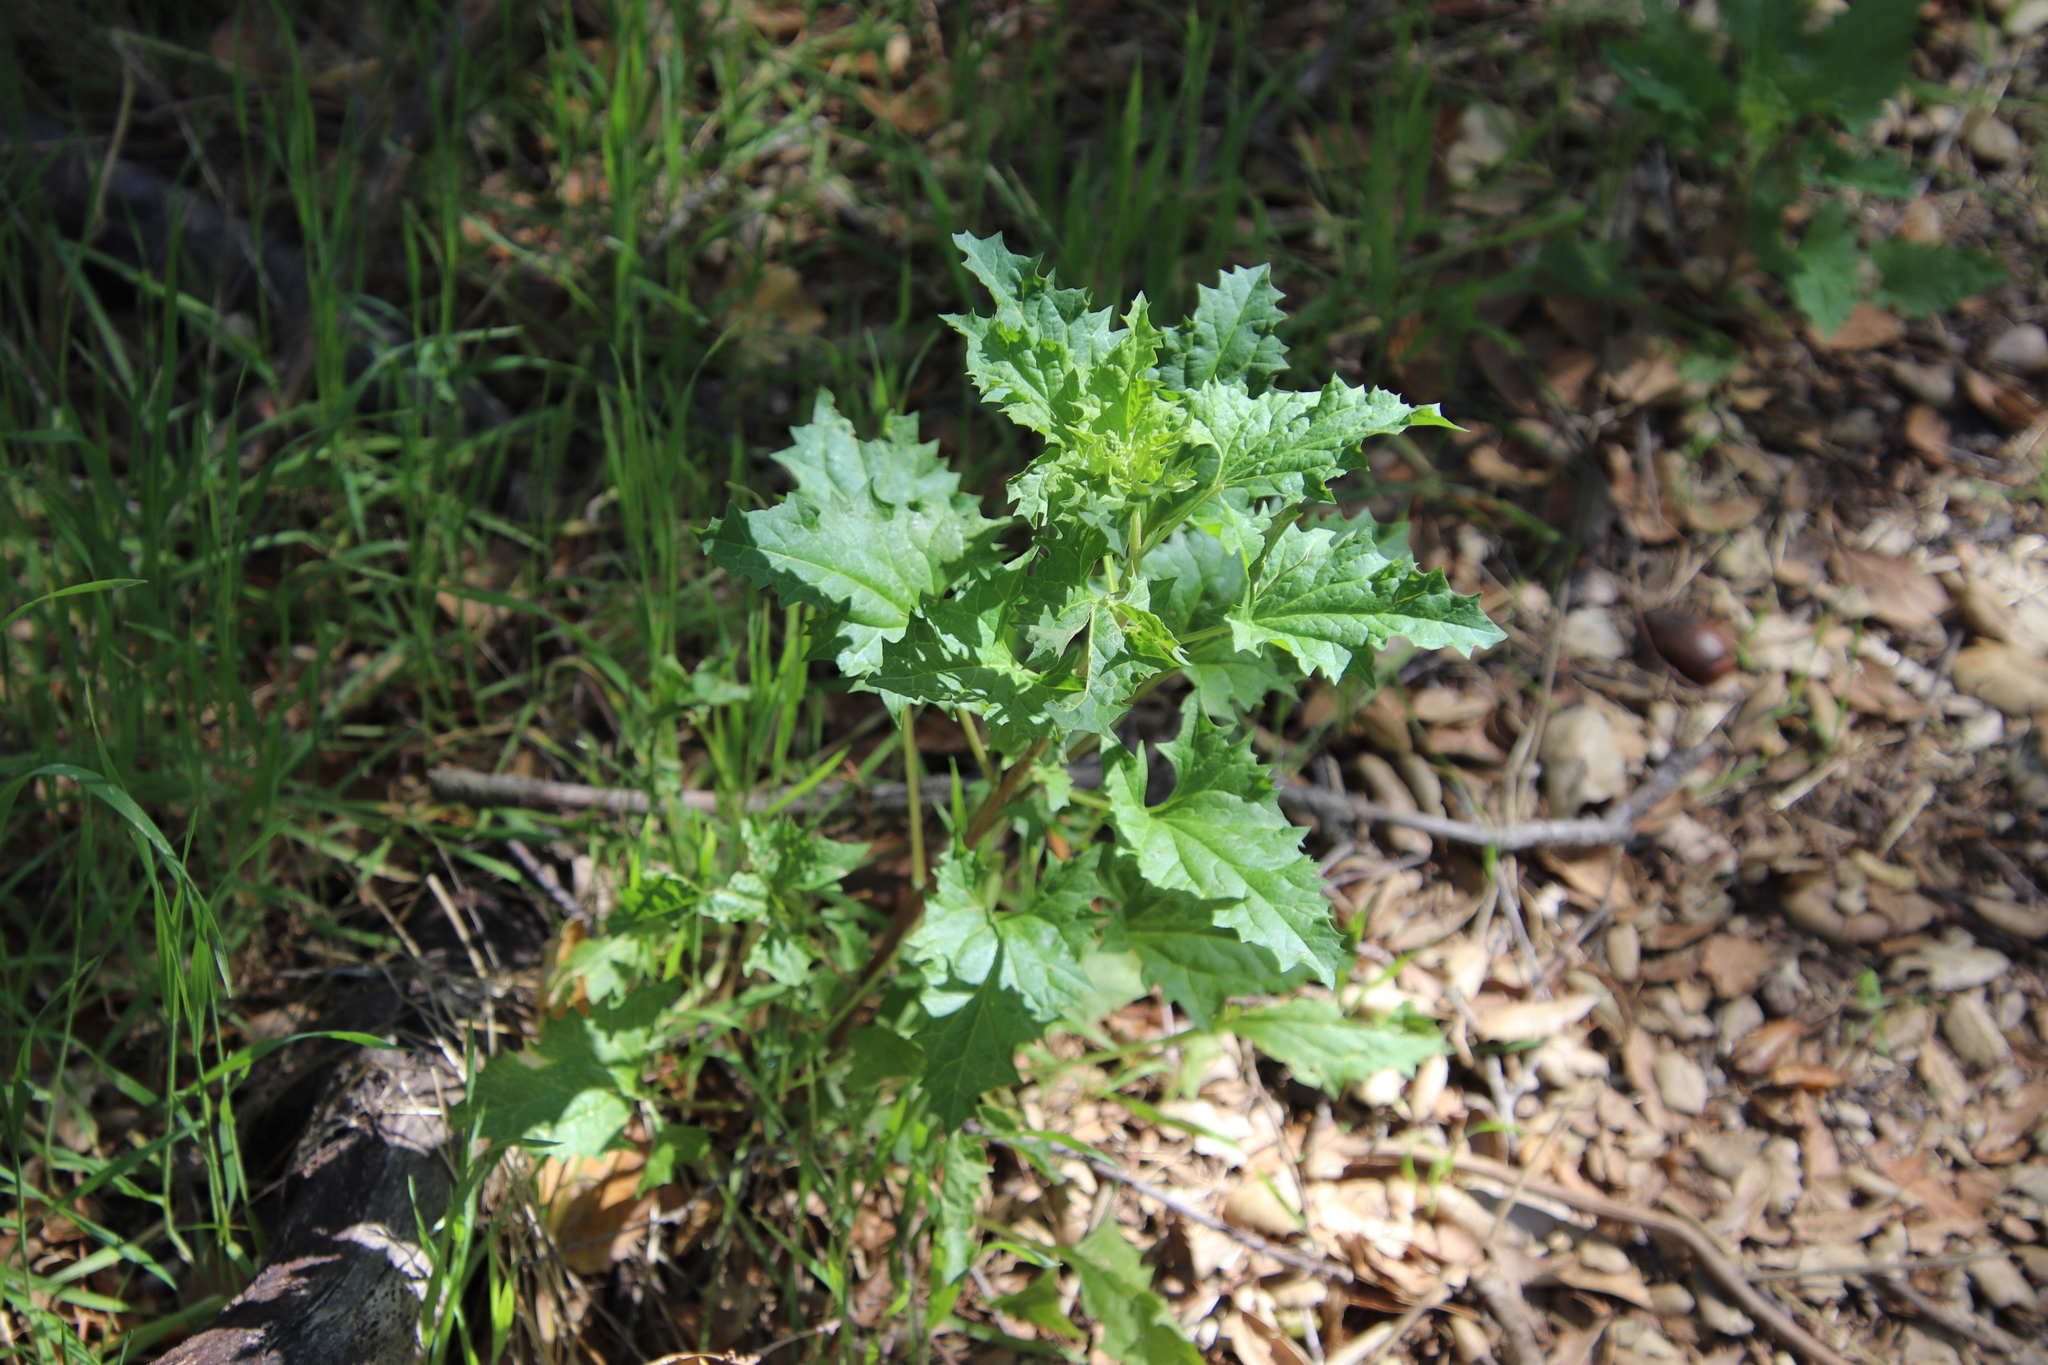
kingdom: Plantae
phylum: Tracheophyta
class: Magnoliopsida
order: Caryophyllales
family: Amaranthaceae
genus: Blitum
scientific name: Blitum californicum
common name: California goosefoot
